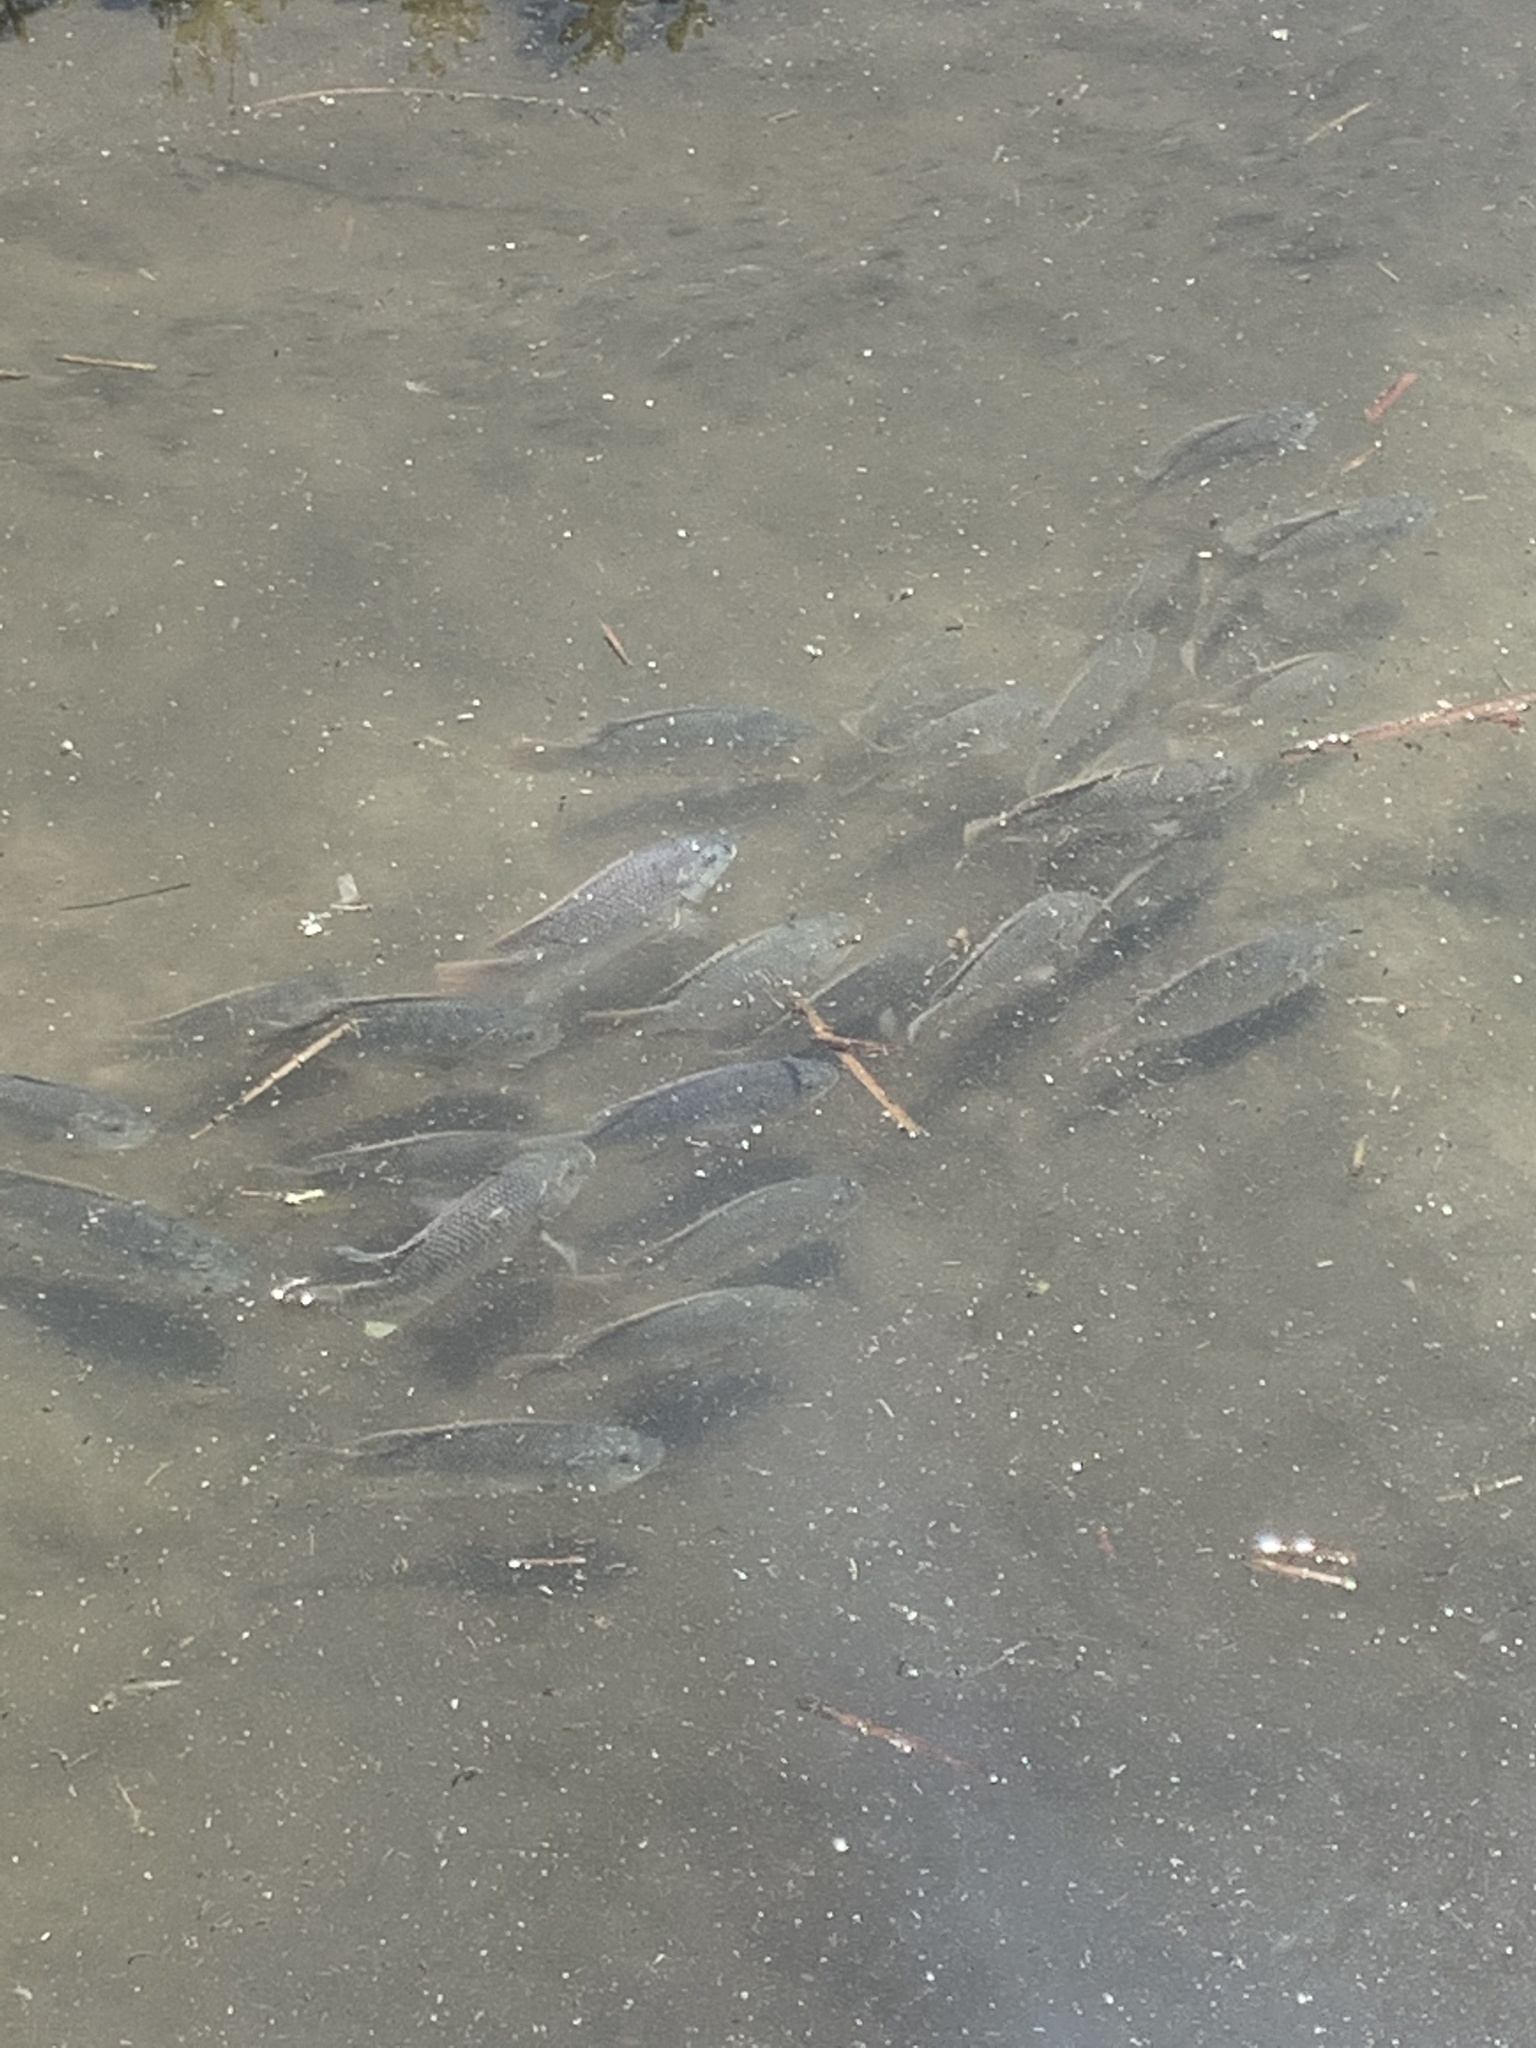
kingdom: Animalia
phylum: Chordata
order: Perciformes
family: Cichlidae
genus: Oreochromis
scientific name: Oreochromis
